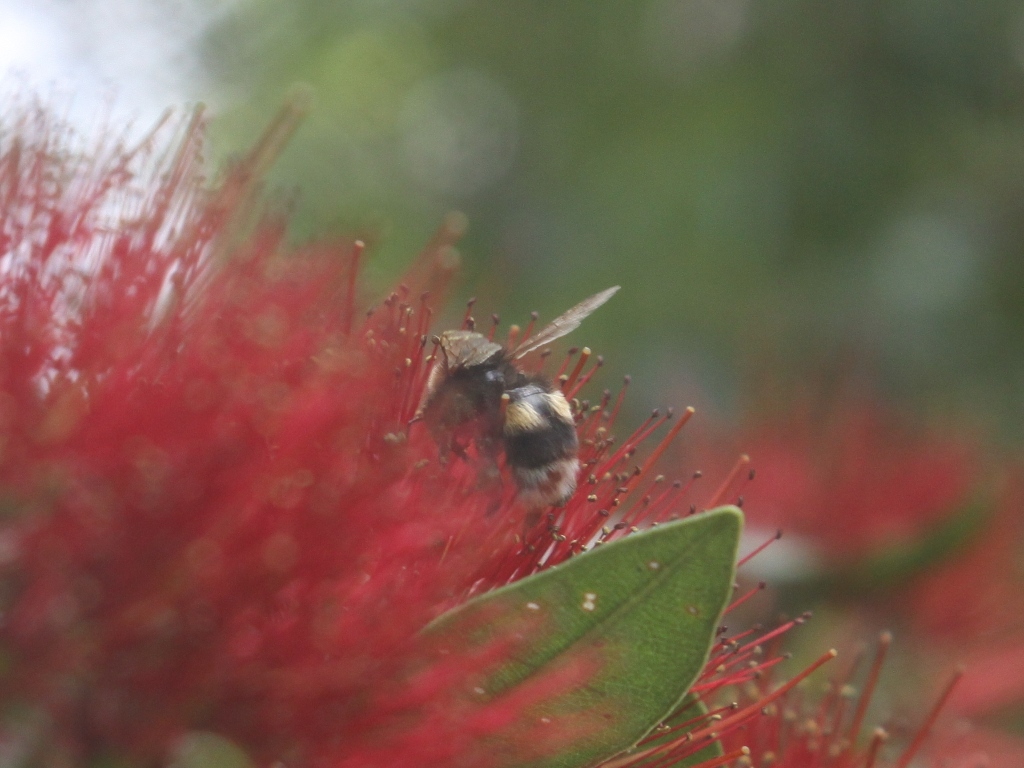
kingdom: Animalia
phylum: Arthropoda
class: Insecta
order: Hymenoptera
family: Apidae
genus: Bombus
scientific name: Bombus terrestris
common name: Buff-tailed bumblebee
